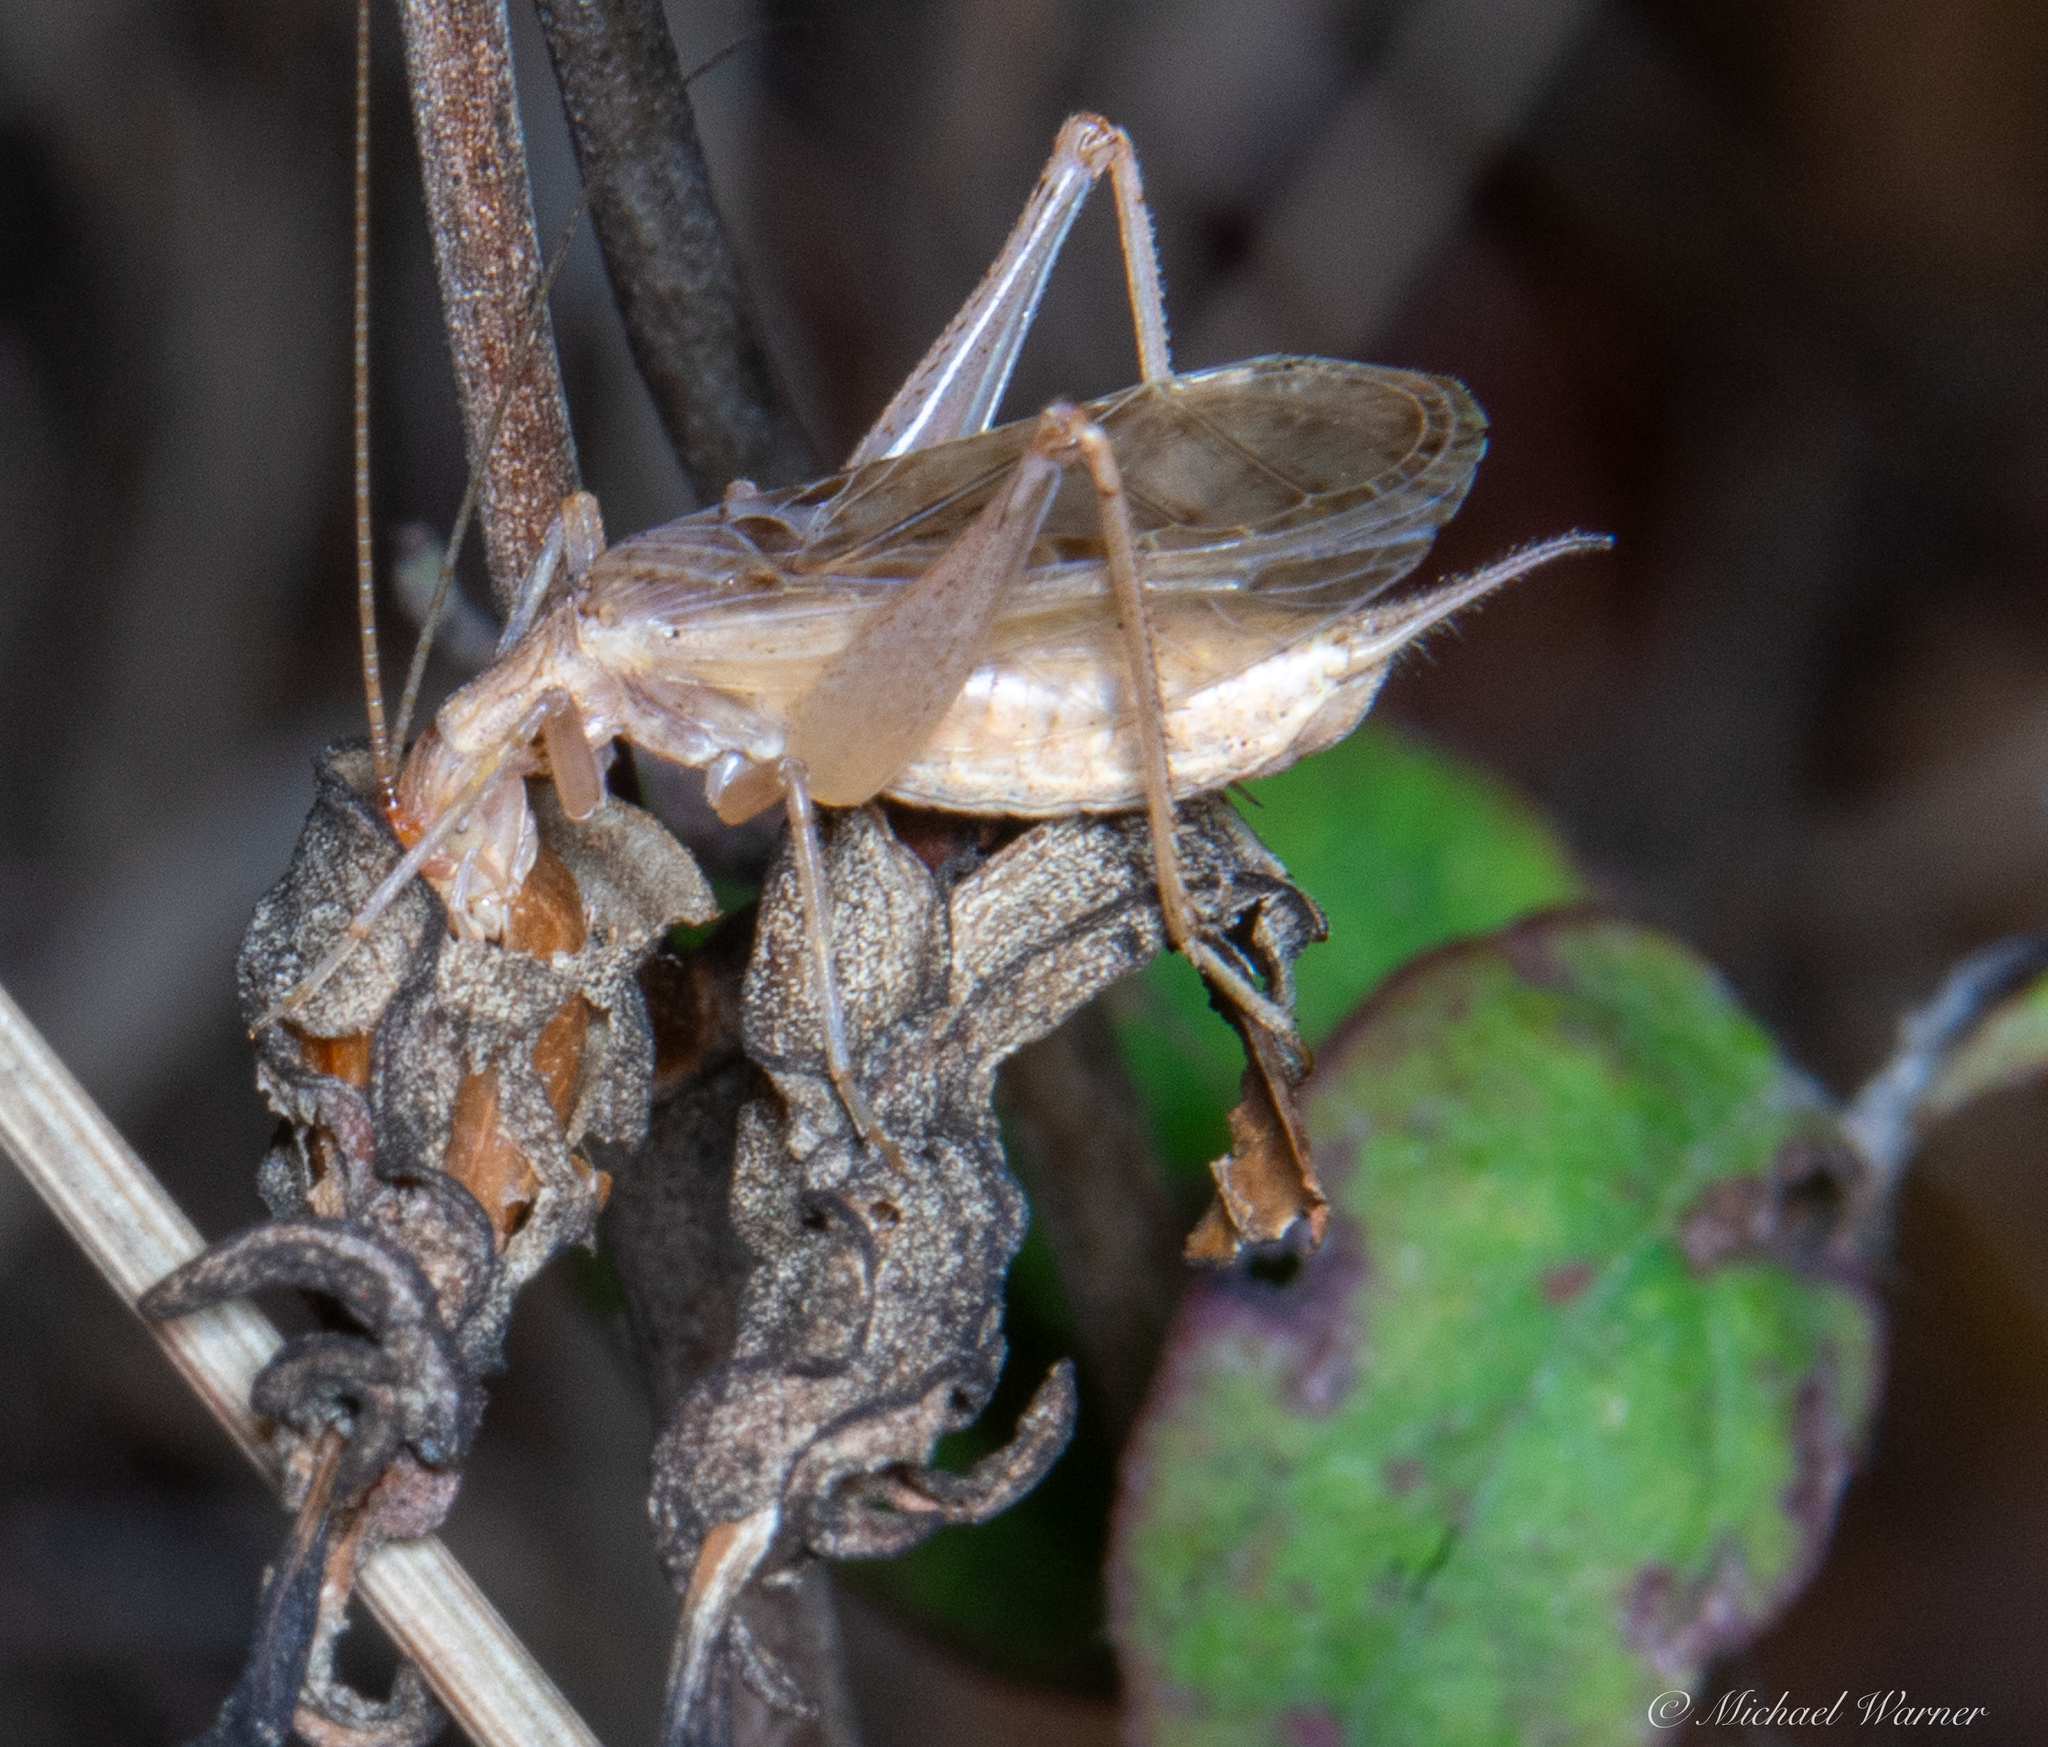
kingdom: Animalia
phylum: Arthropoda
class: Insecta
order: Orthoptera
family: Gryllidae
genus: Oecanthus
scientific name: Oecanthus californicus
